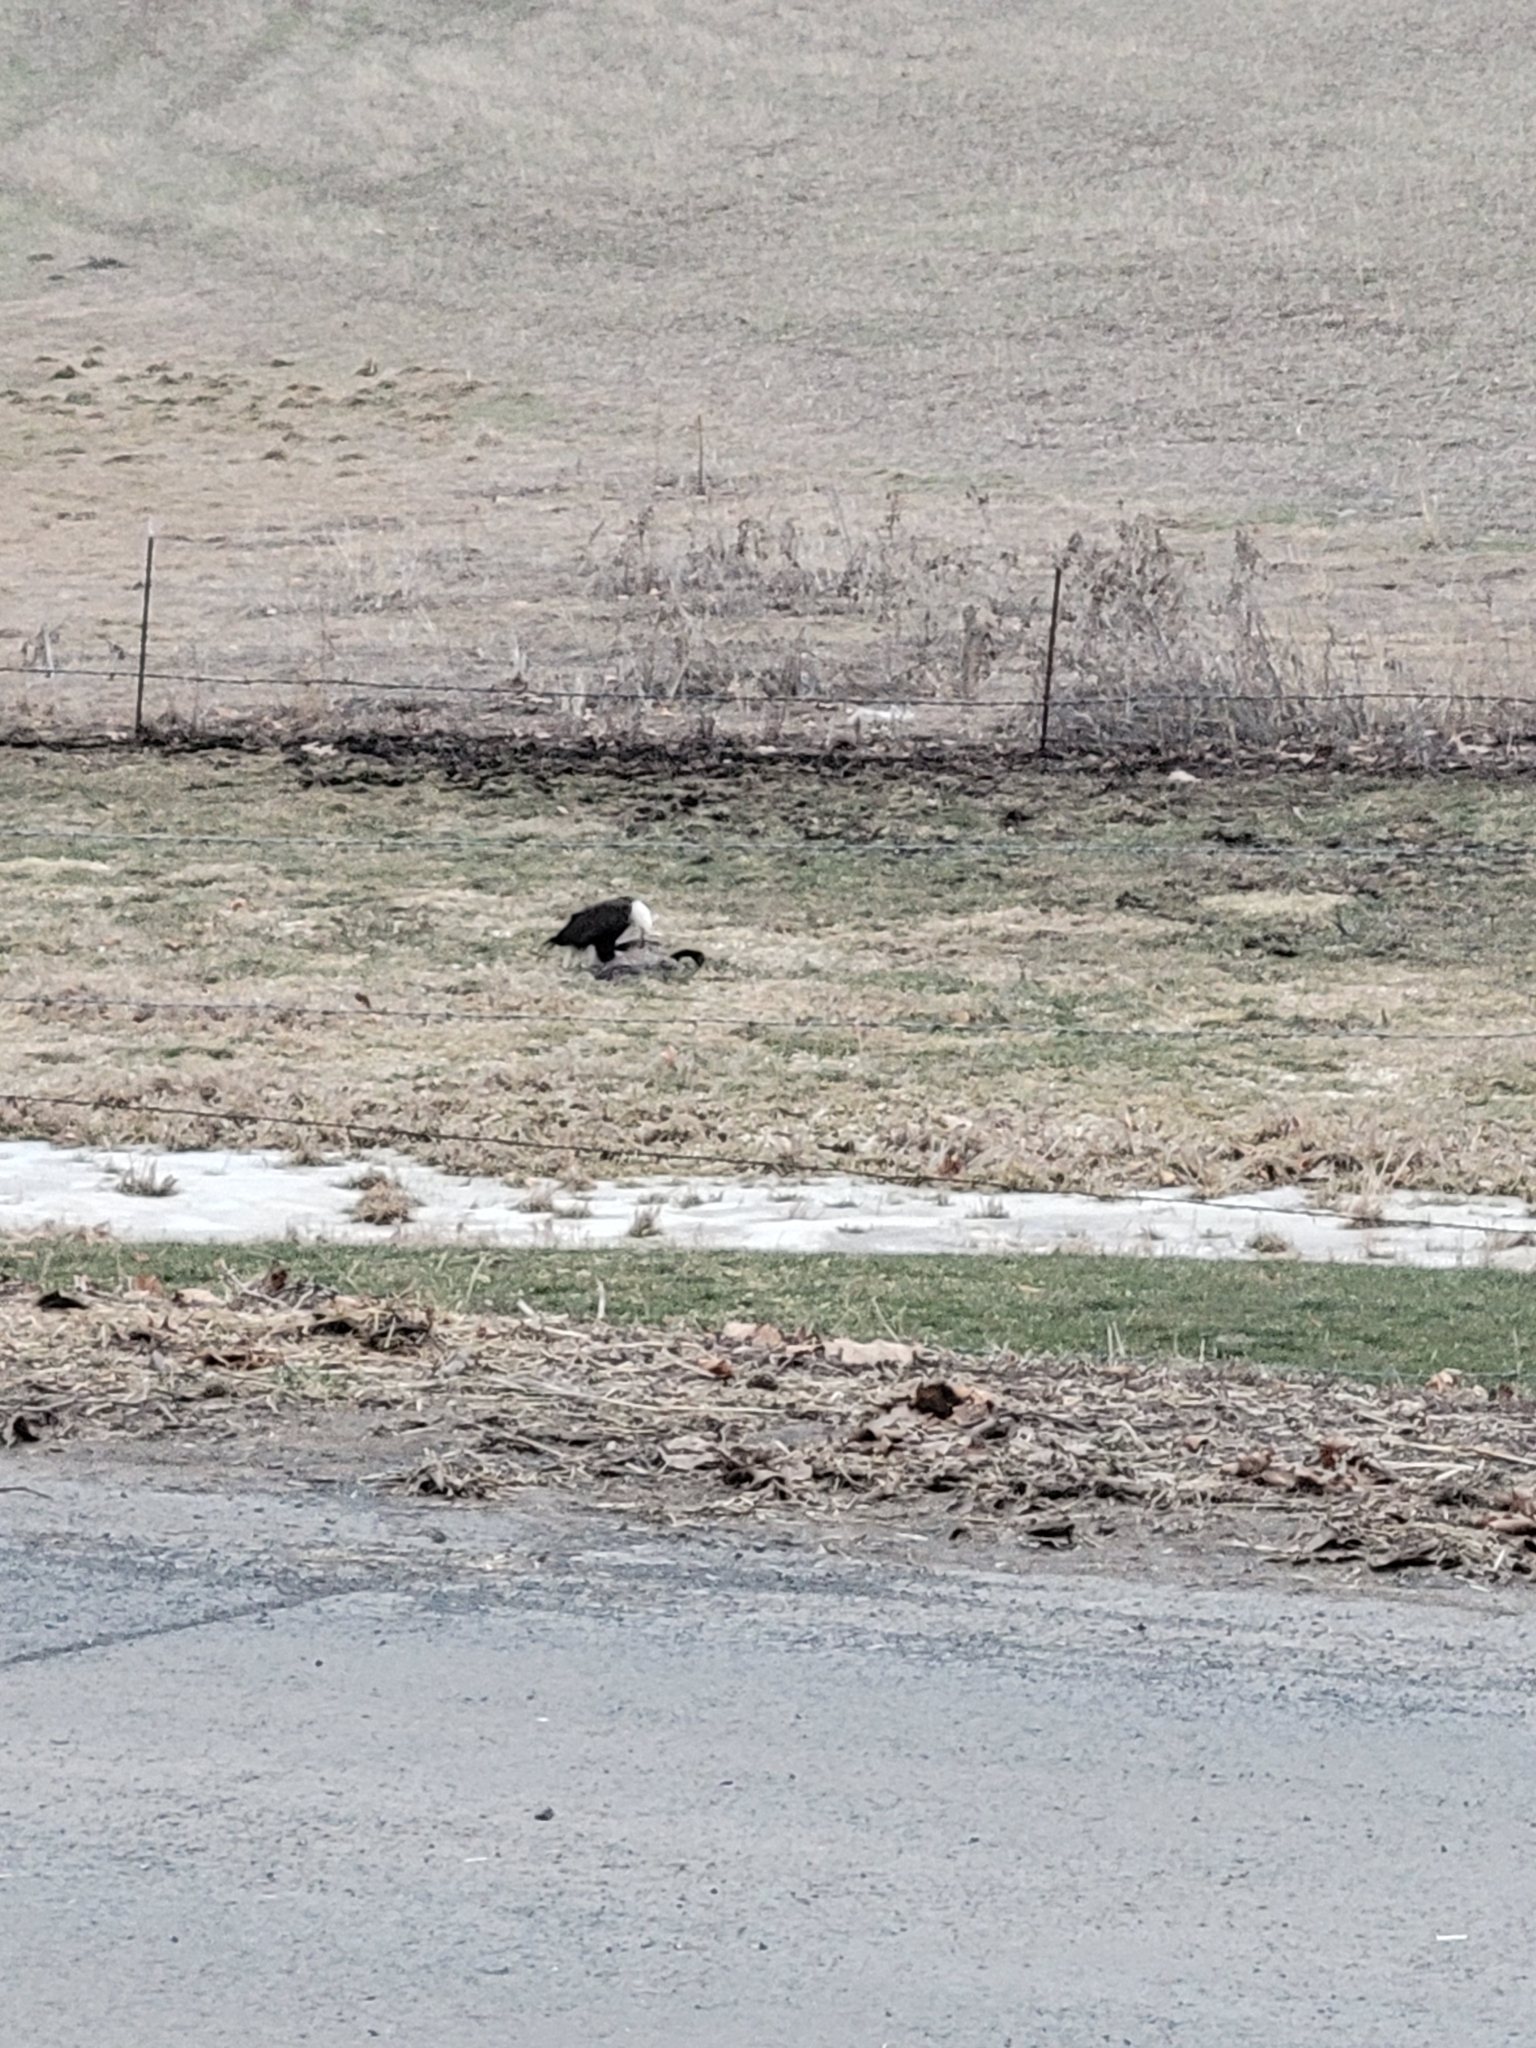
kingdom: Animalia
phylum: Chordata
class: Aves
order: Accipitriformes
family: Accipitridae
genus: Haliaeetus
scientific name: Haliaeetus leucocephalus
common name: Bald eagle
